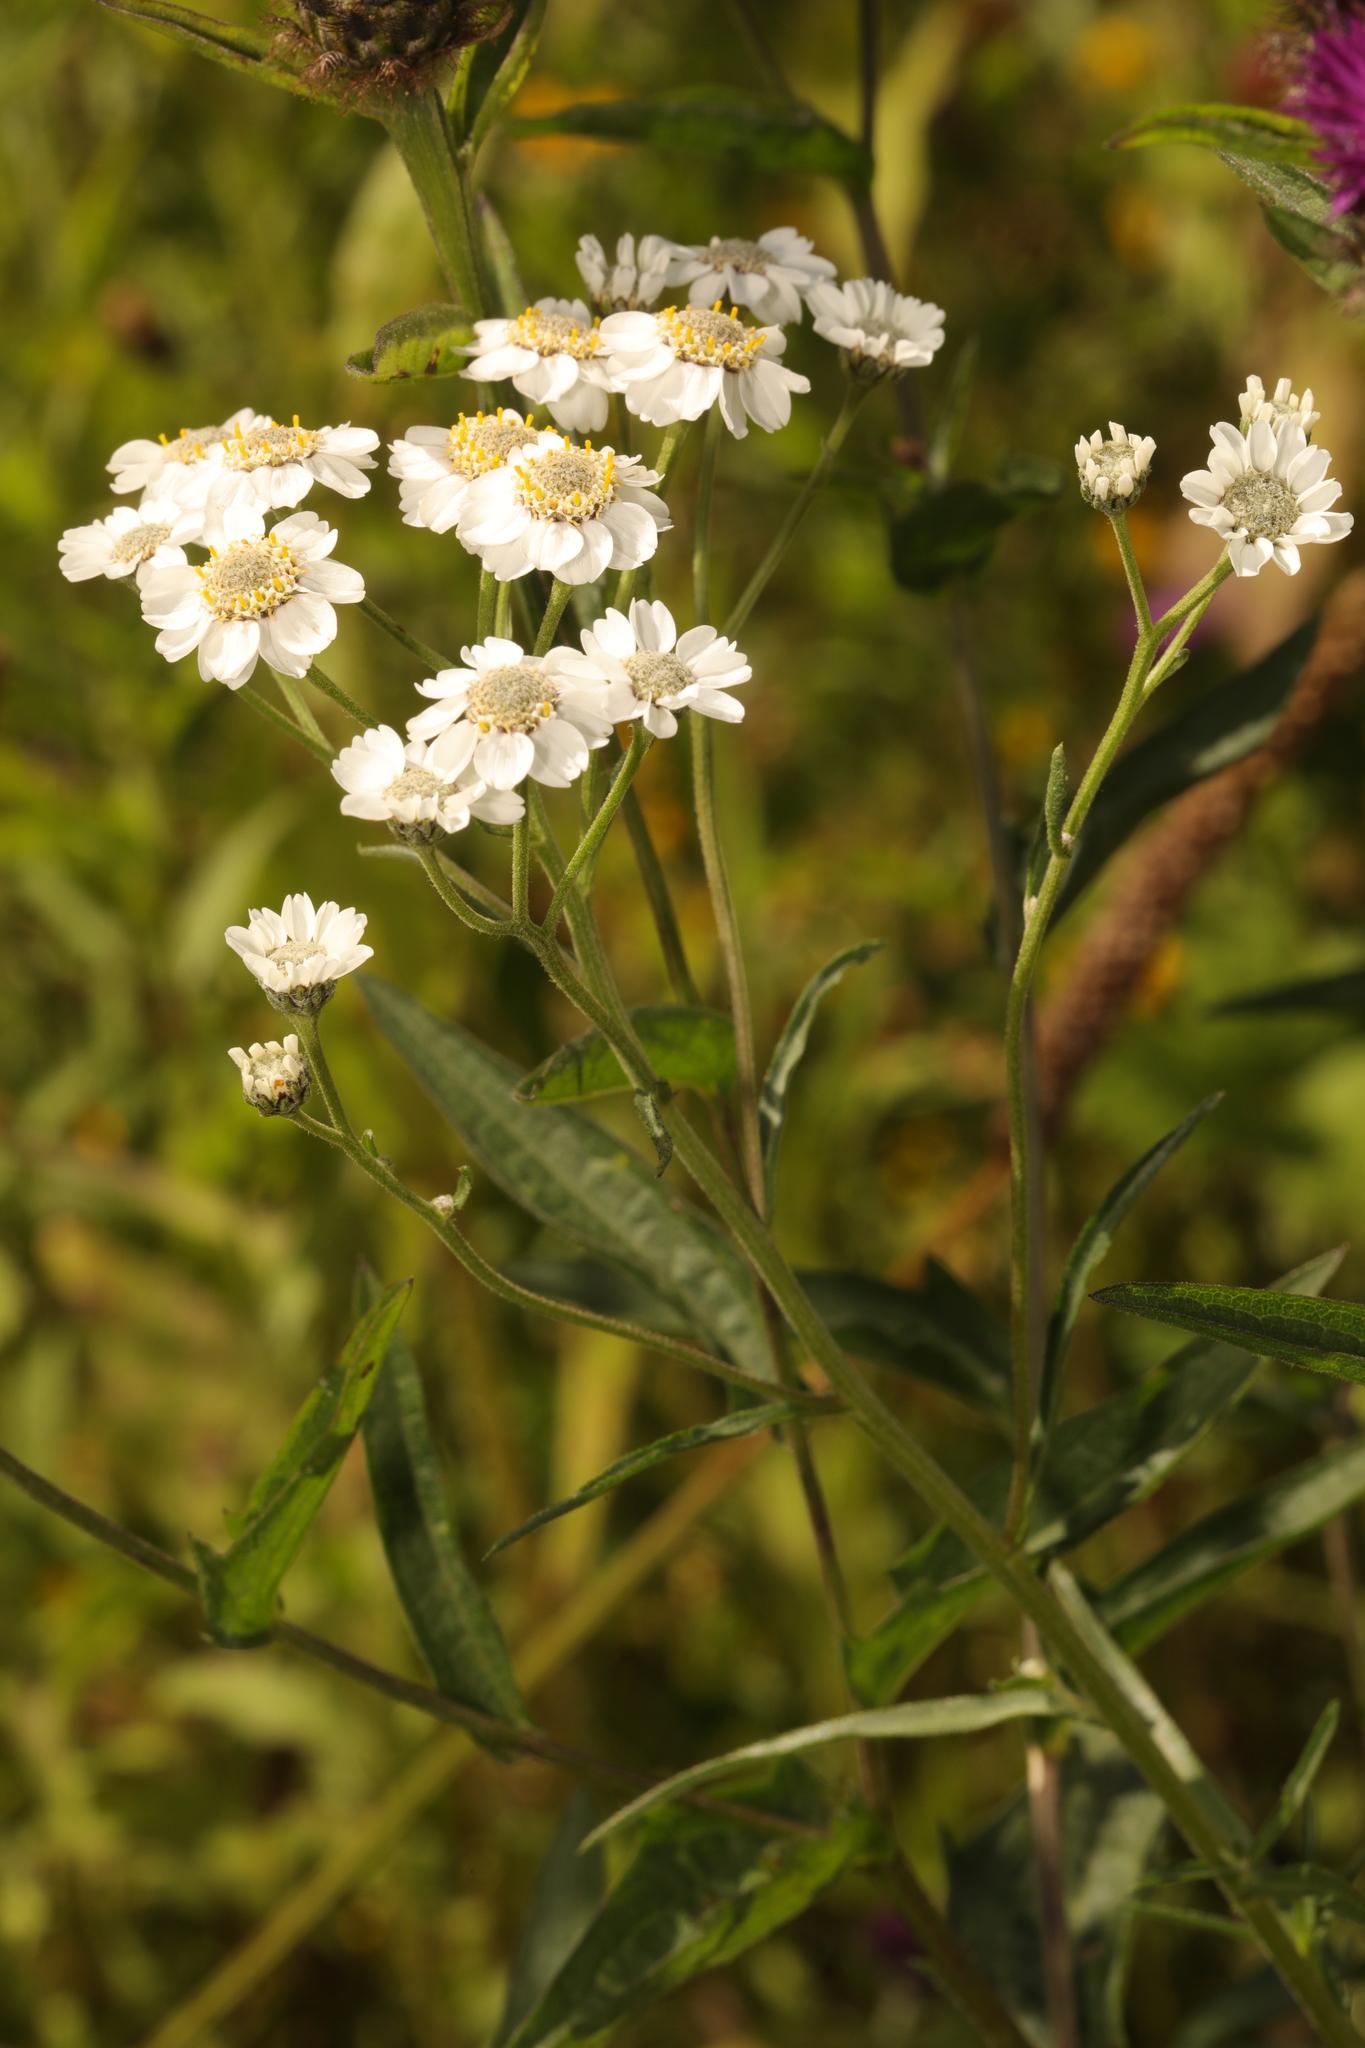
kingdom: Plantae
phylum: Tracheophyta
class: Magnoliopsida
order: Asterales
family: Asteraceae
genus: Achillea
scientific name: Achillea ptarmica
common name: Sneezeweed
